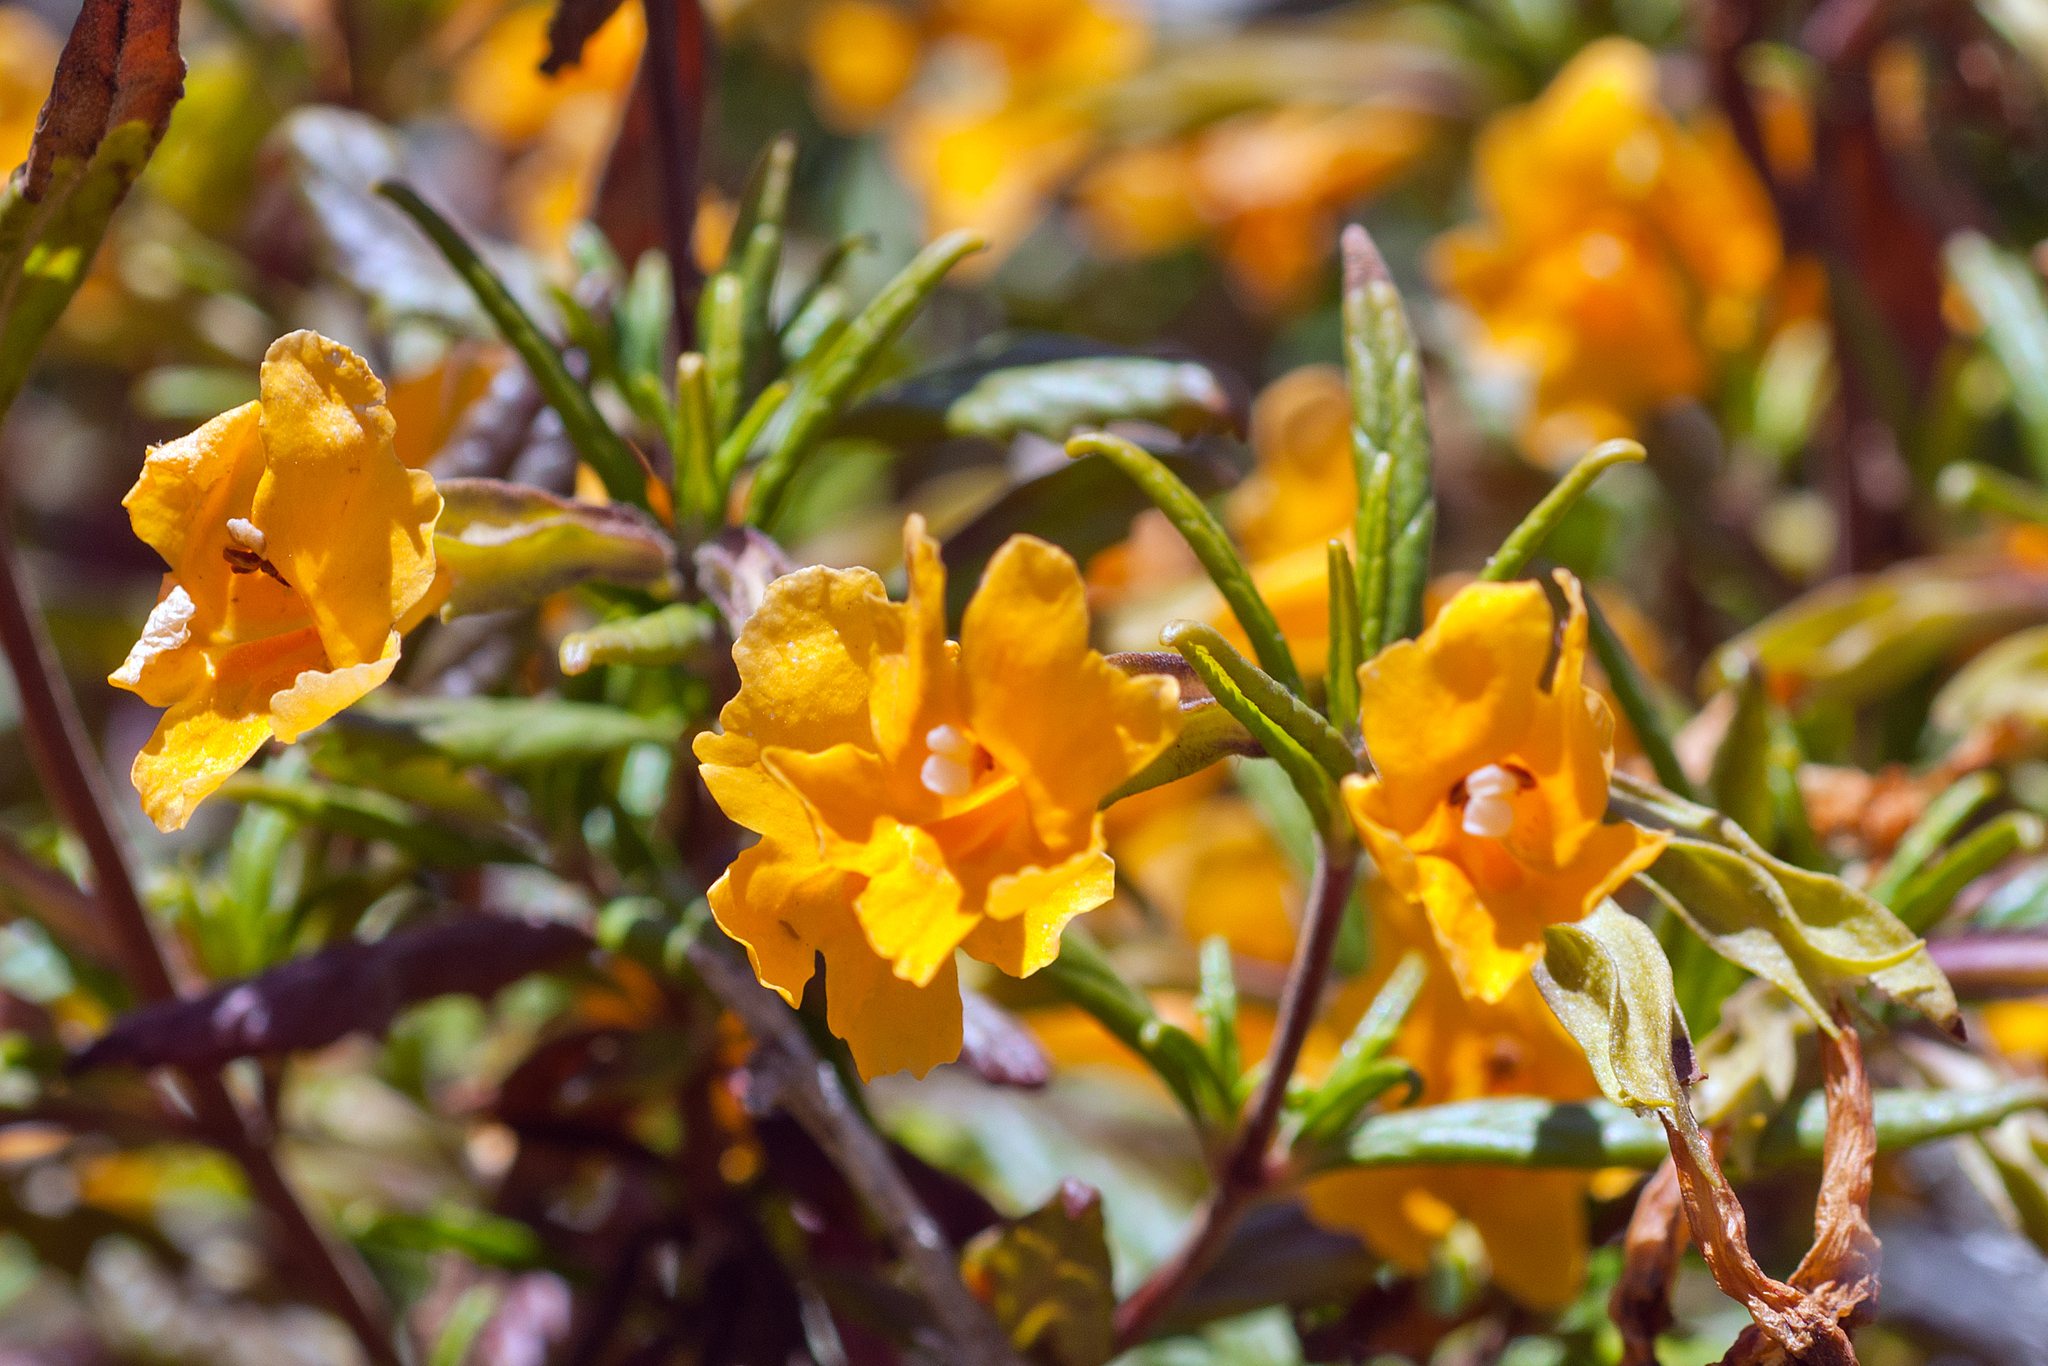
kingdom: Plantae
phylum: Tracheophyta
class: Magnoliopsida
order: Lamiales
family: Phrymaceae
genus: Diplacus
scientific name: Diplacus aurantiacus
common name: Bush monkey-flower
